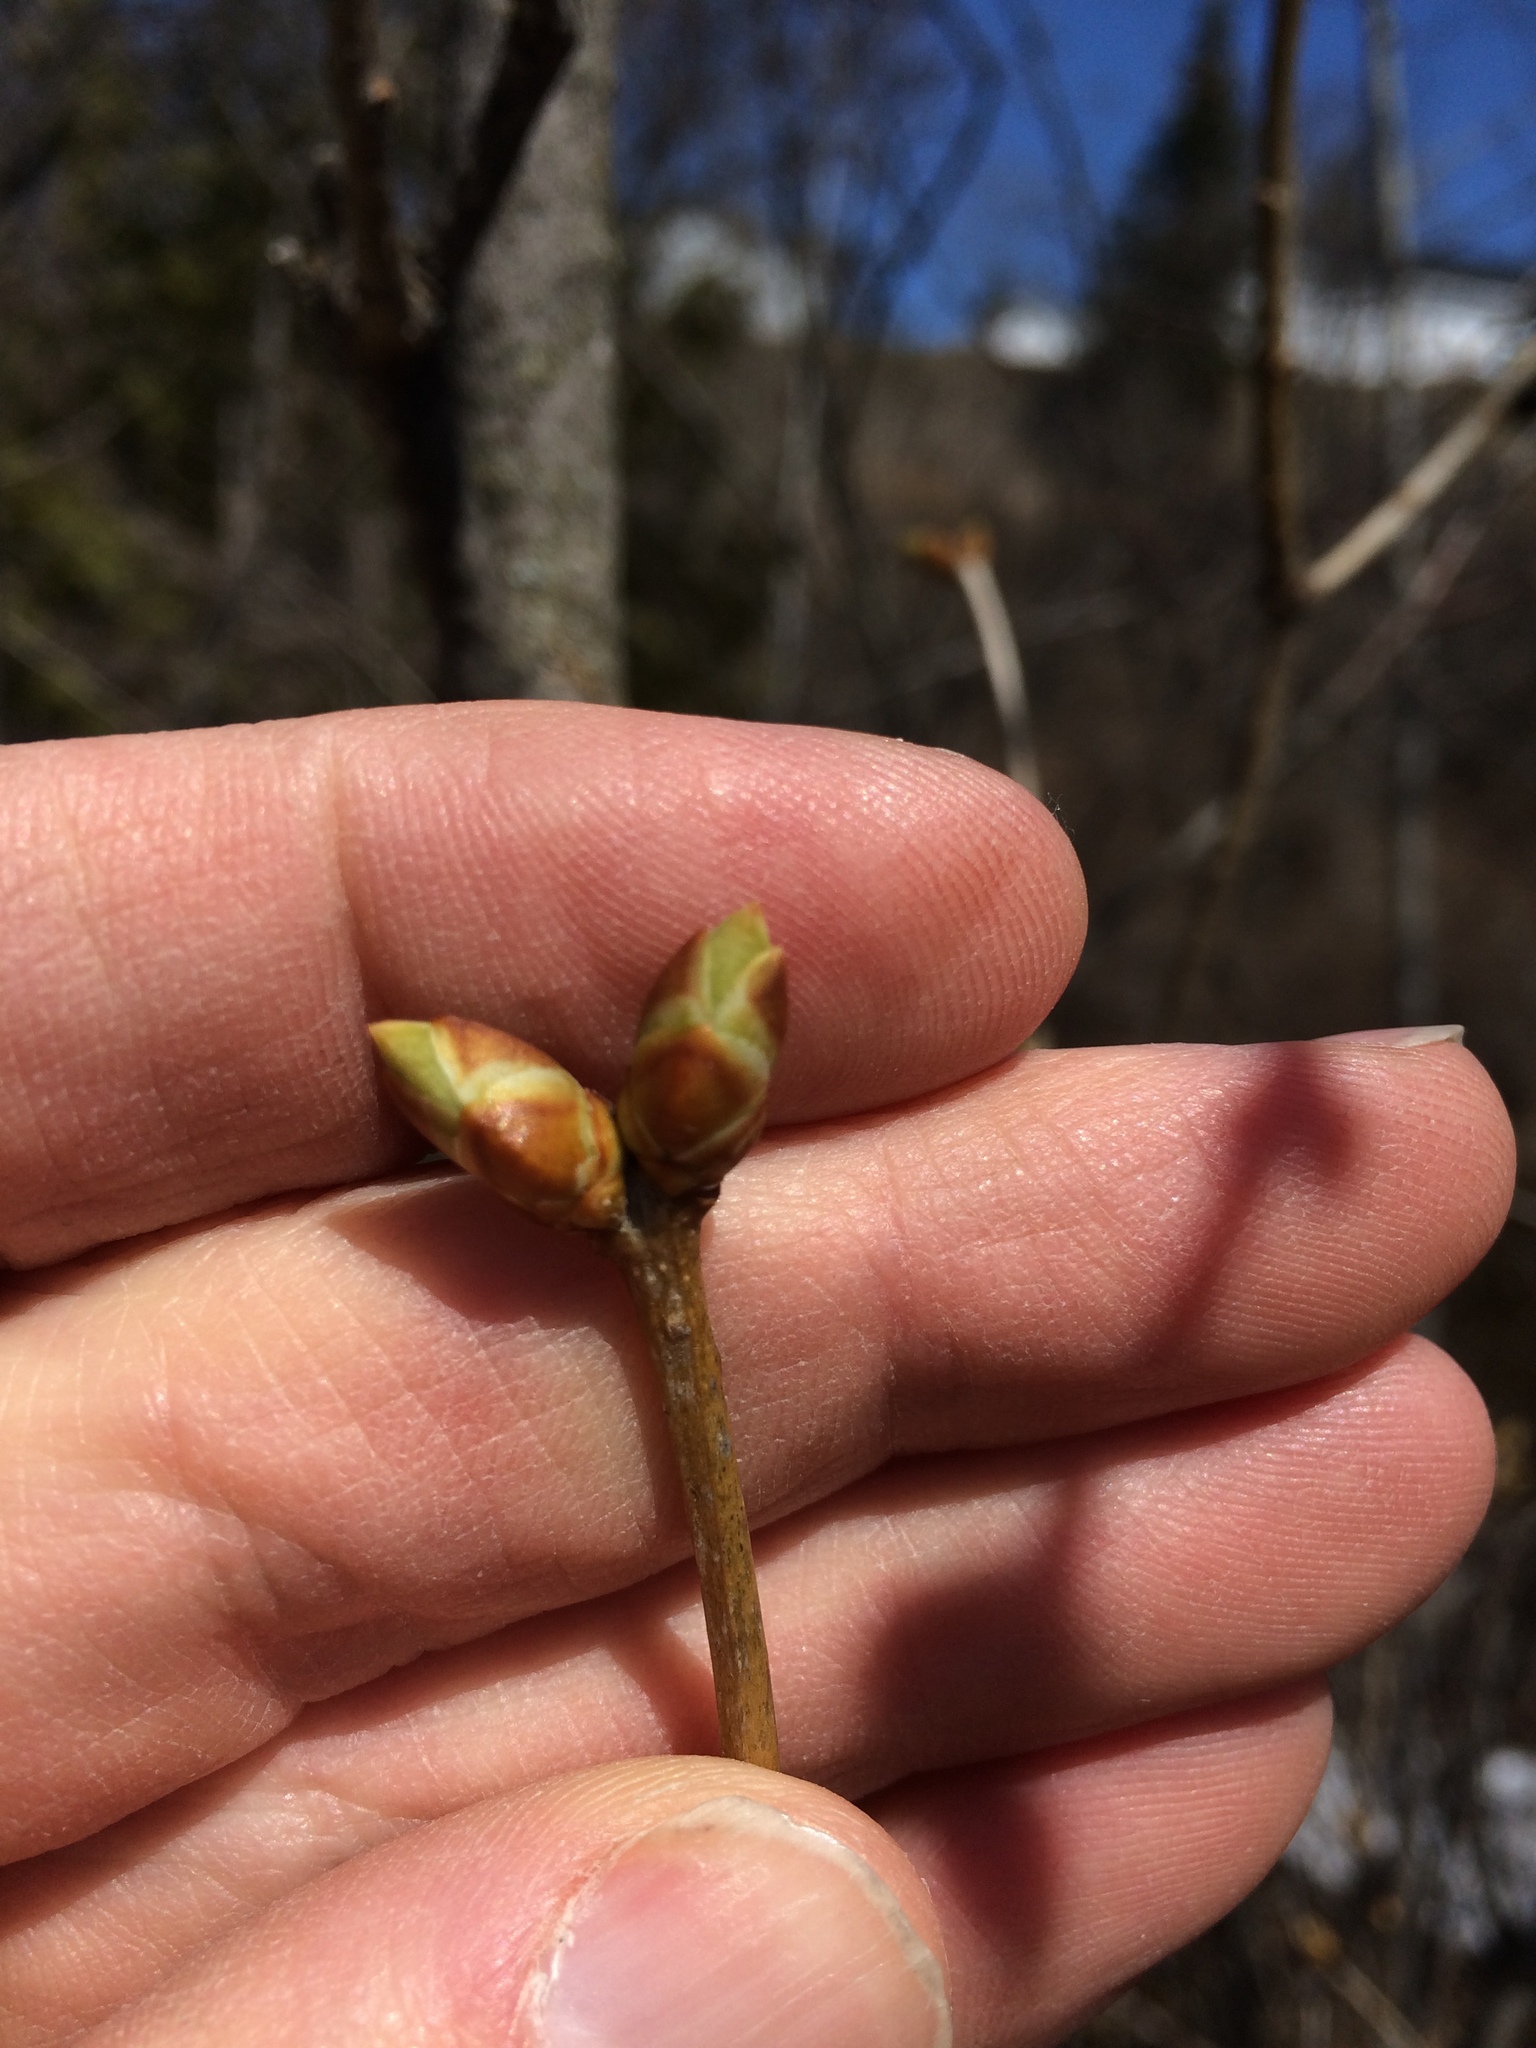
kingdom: Plantae
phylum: Tracheophyta
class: Magnoliopsida
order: Lamiales
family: Oleaceae
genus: Syringa
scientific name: Syringa vulgaris
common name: Common lilac
